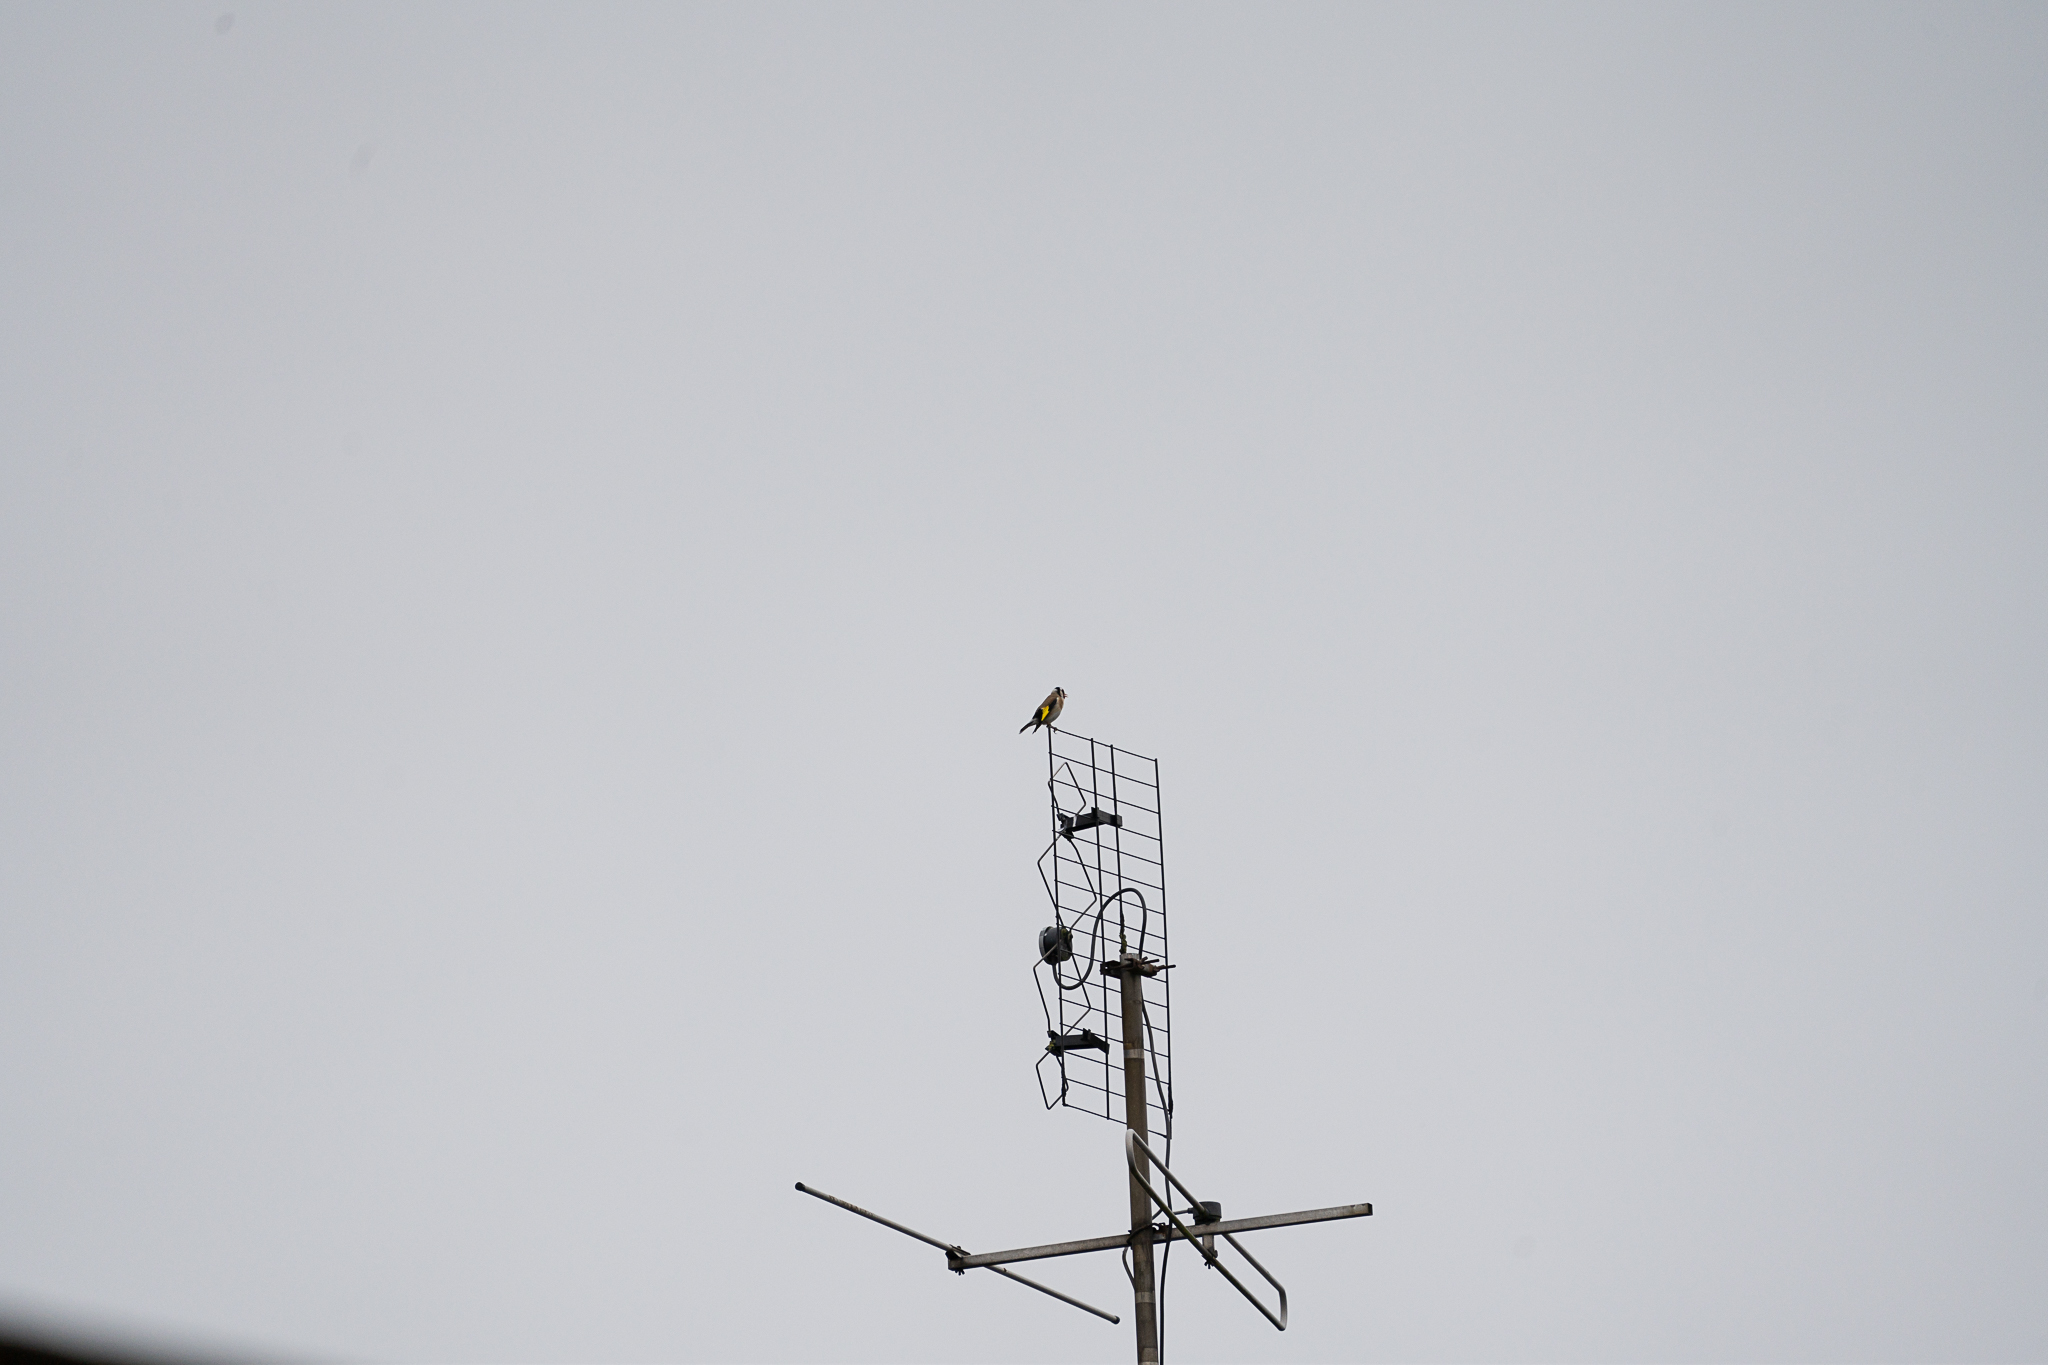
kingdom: Animalia
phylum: Chordata
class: Aves
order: Passeriformes
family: Fringillidae
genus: Carduelis
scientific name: Carduelis carduelis
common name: European goldfinch
